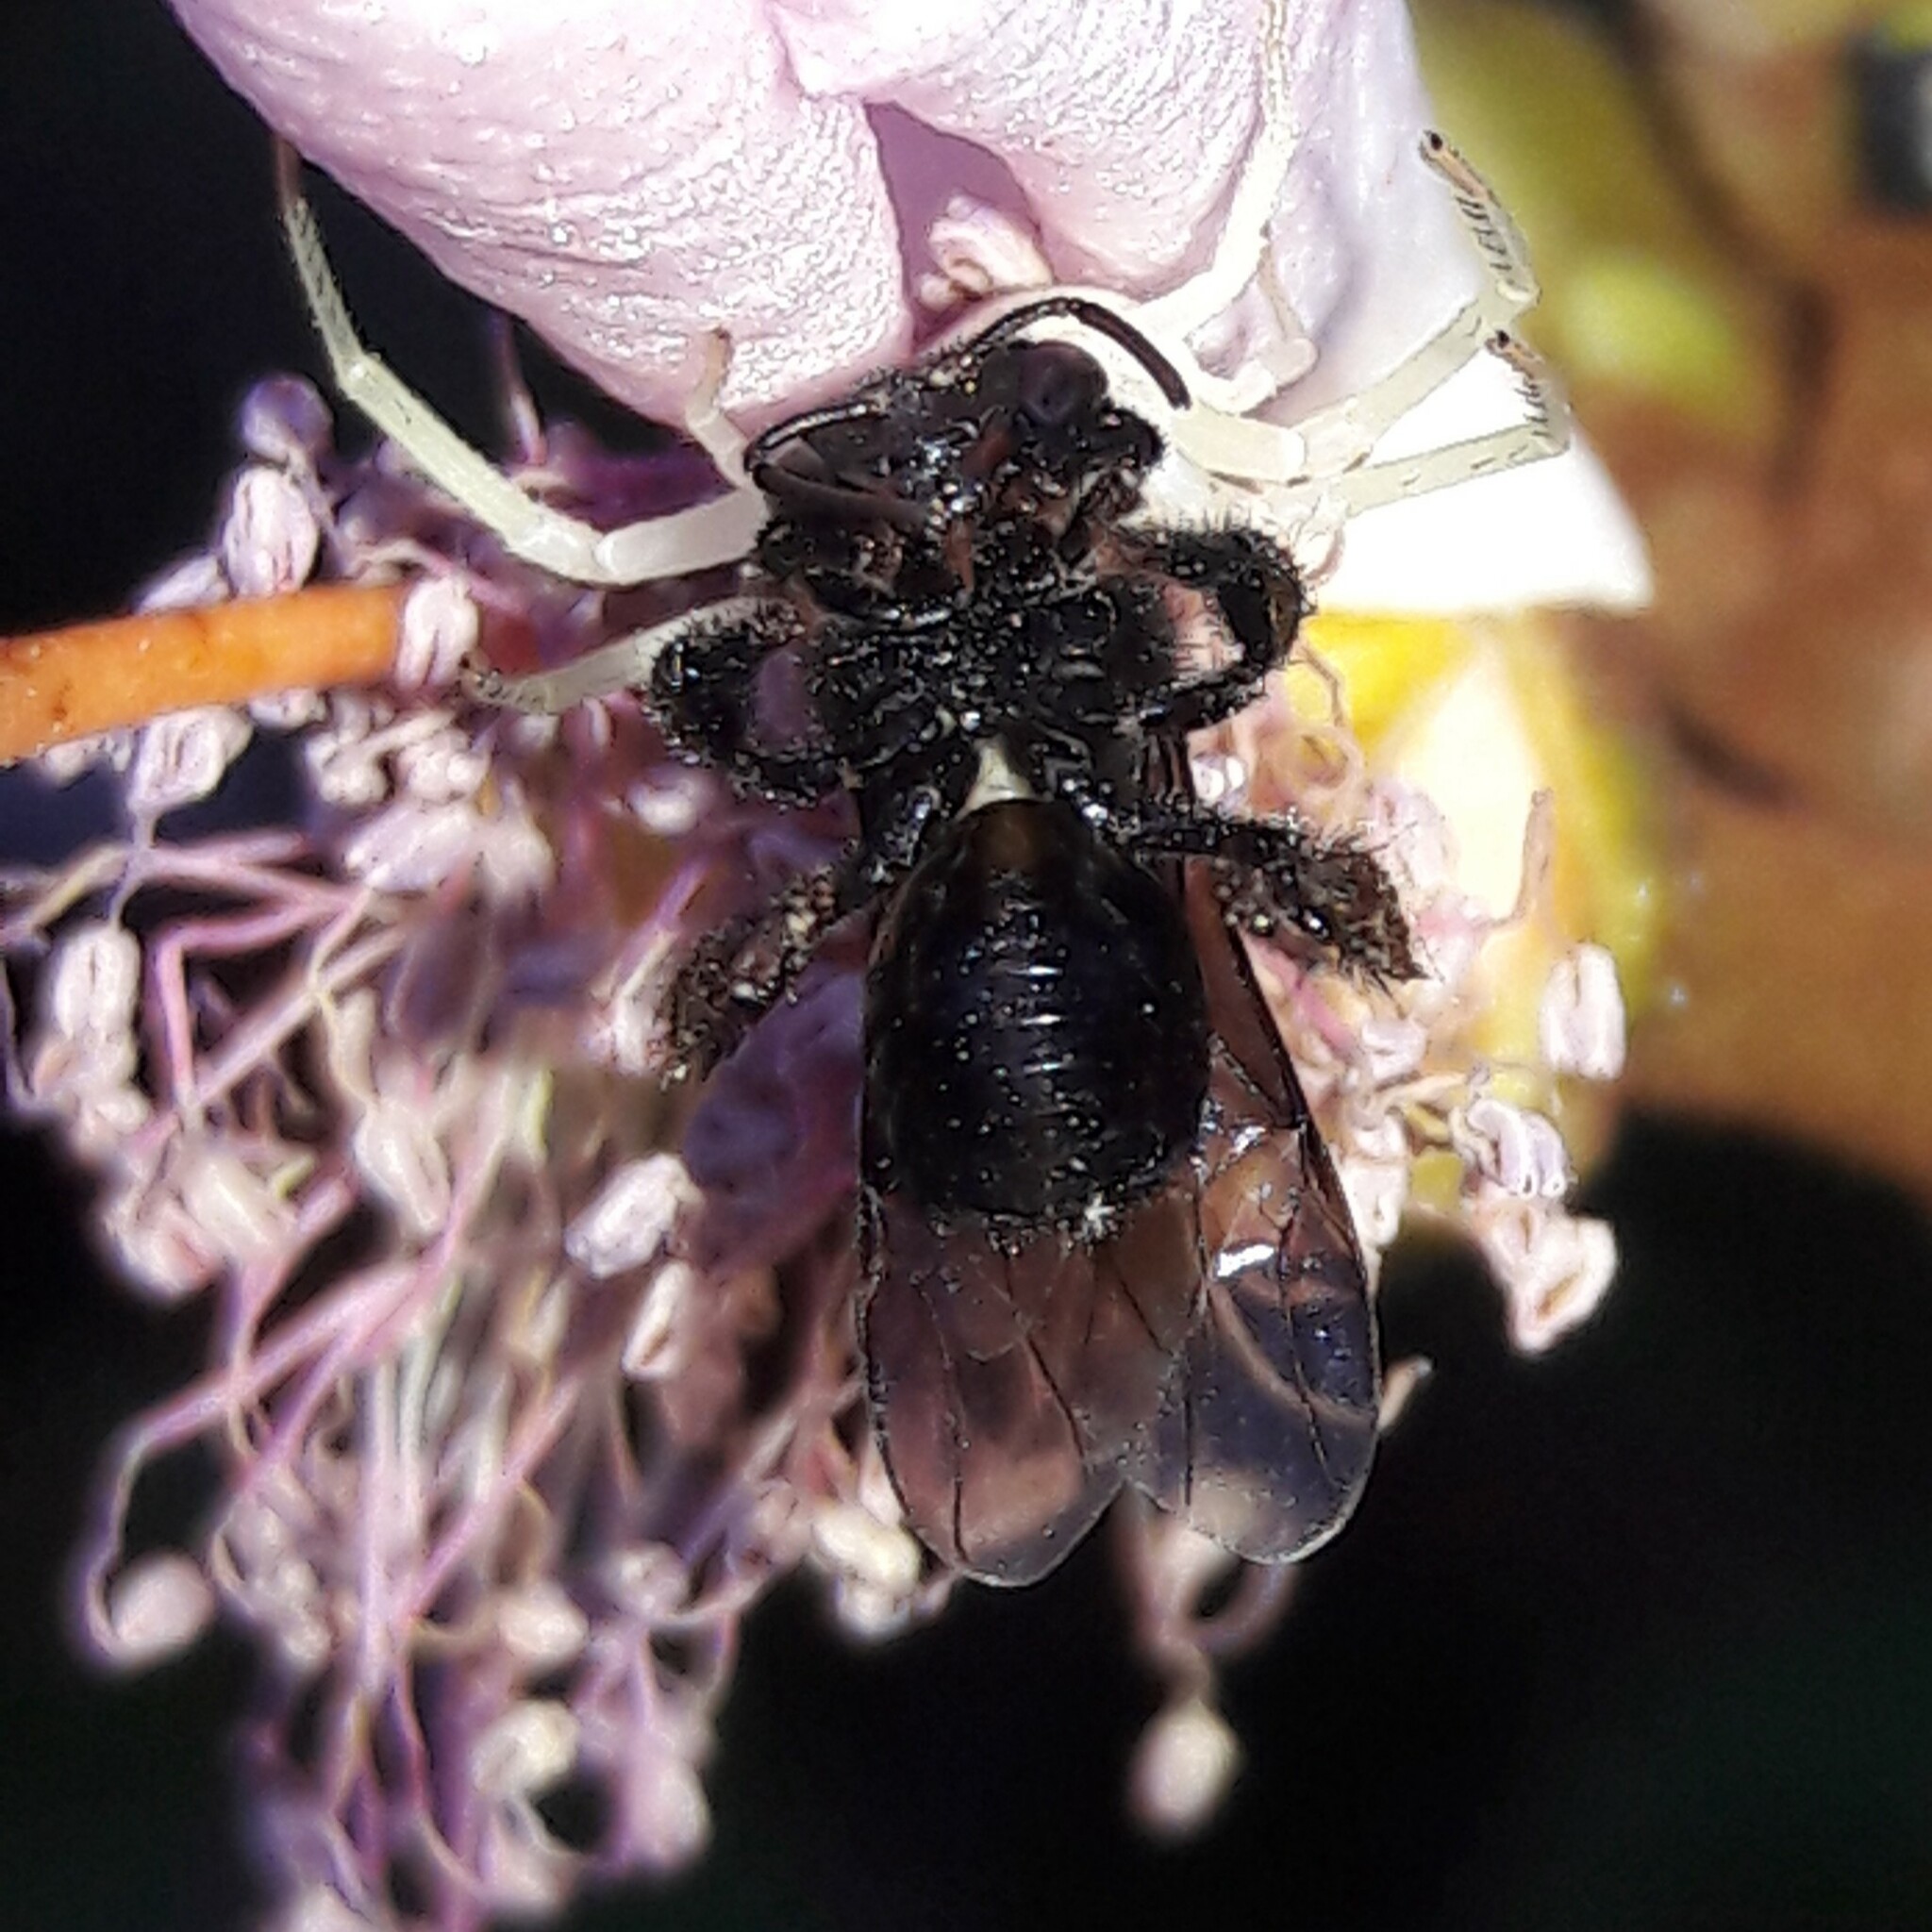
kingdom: Animalia
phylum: Arthropoda
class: Insecta
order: Hymenoptera
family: Apidae
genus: Trigona
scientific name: Trigona spinipes
